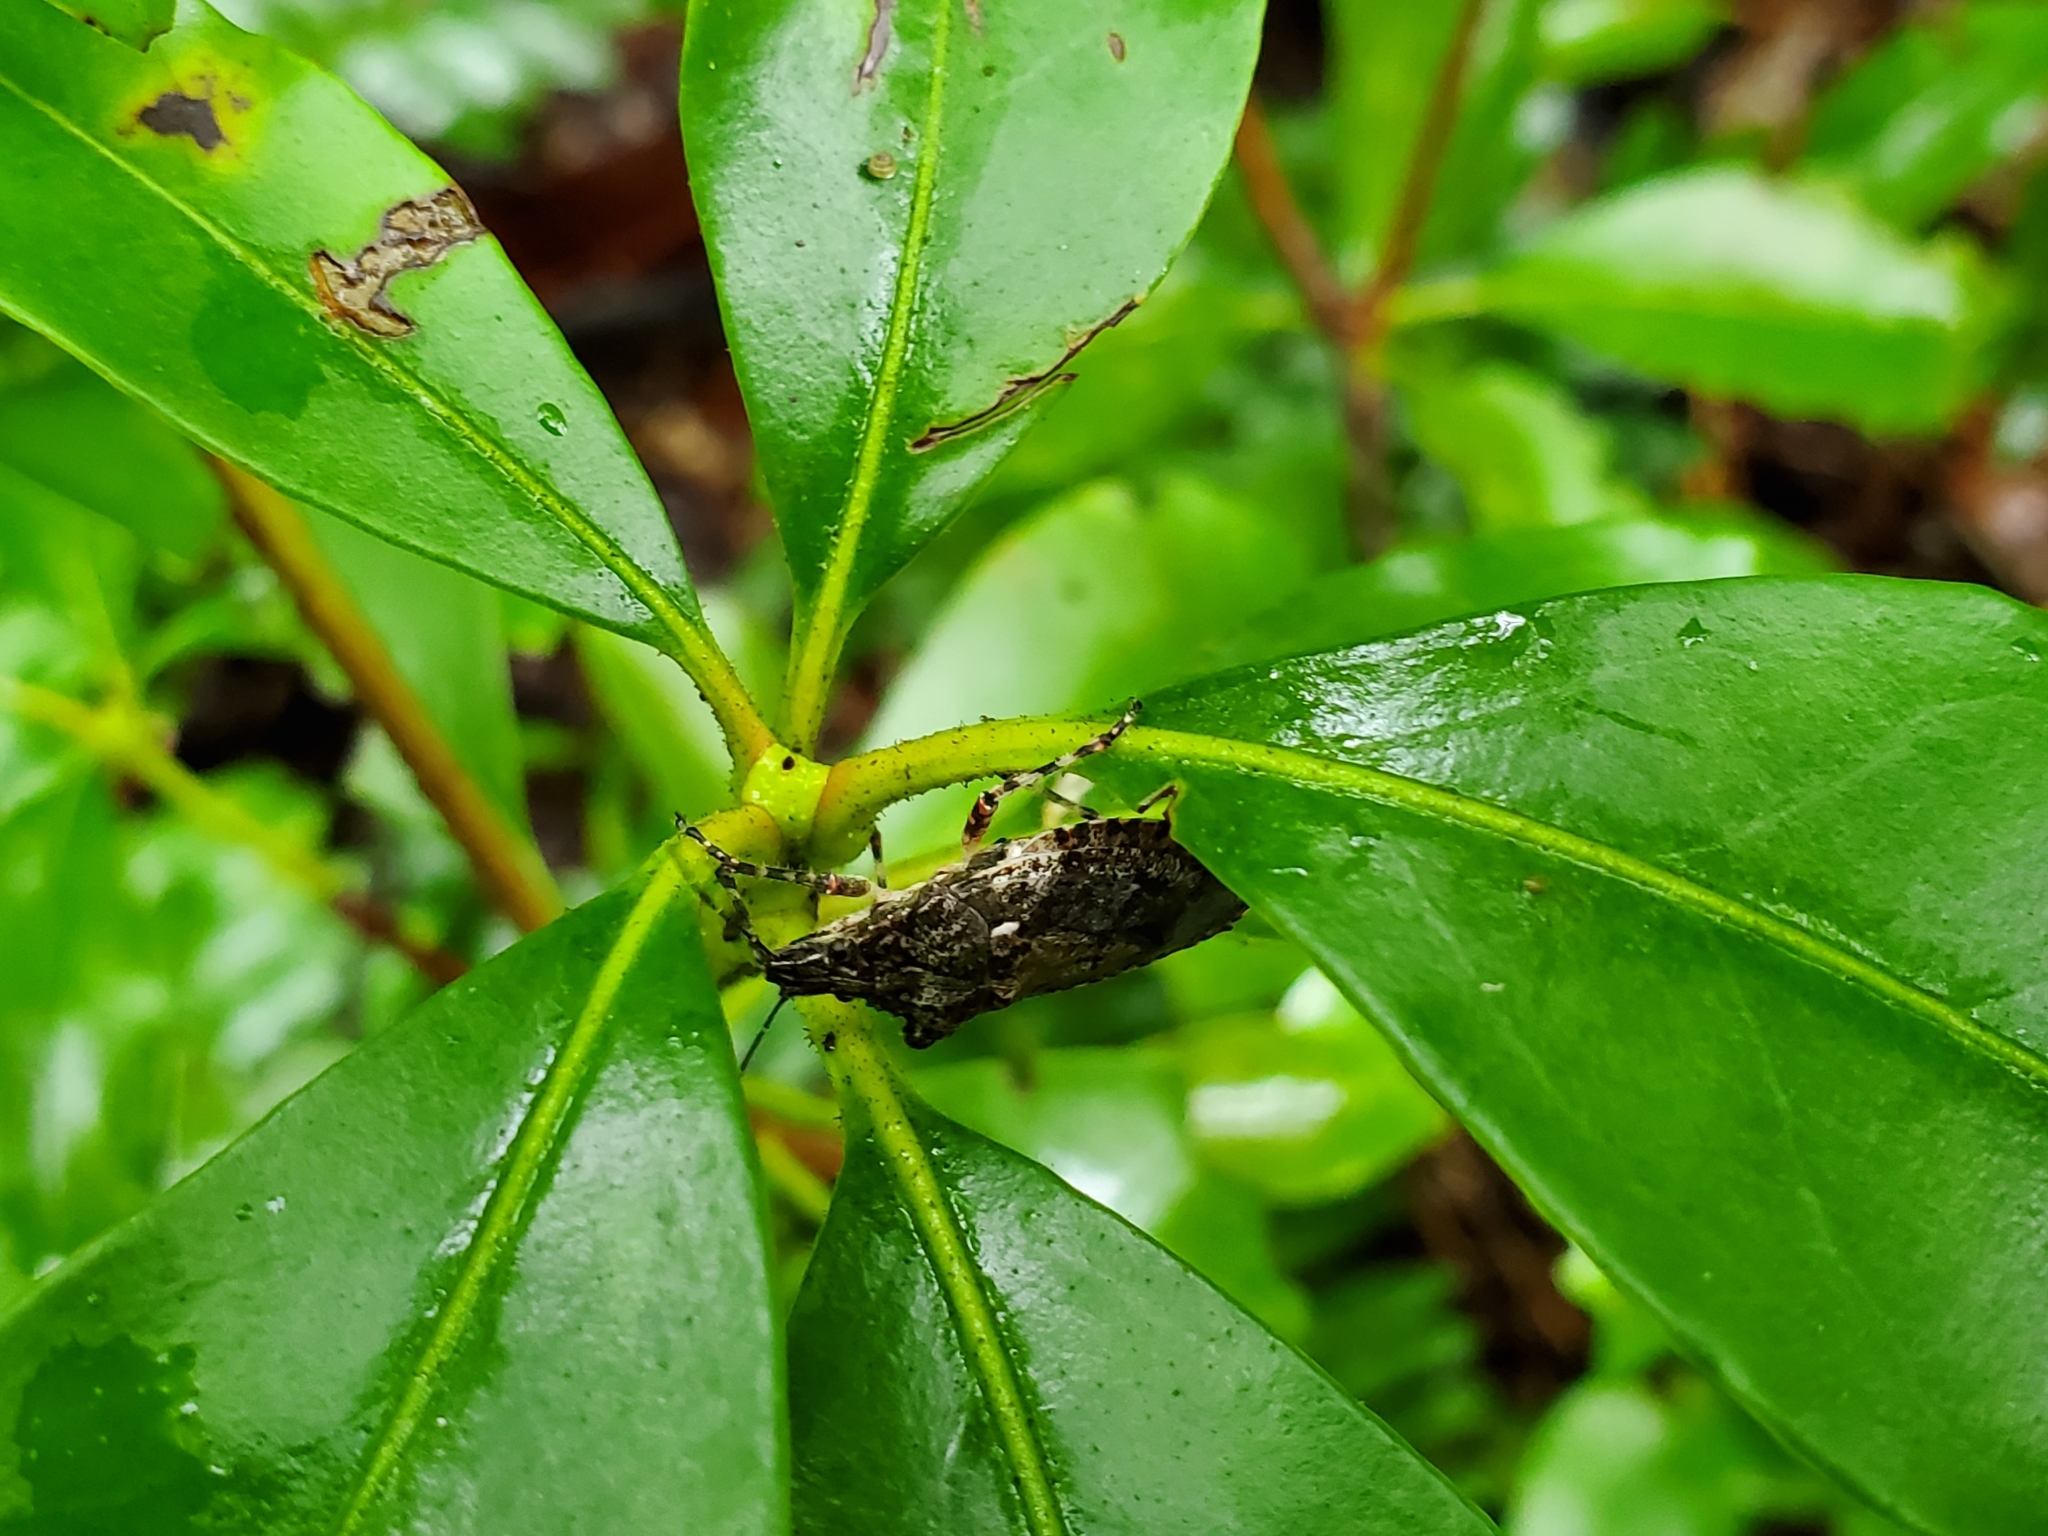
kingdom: Animalia
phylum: Arthropoda
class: Insecta
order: Hemiptera
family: Pentatomidae
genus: Brochymena
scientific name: Brochymena arborea
